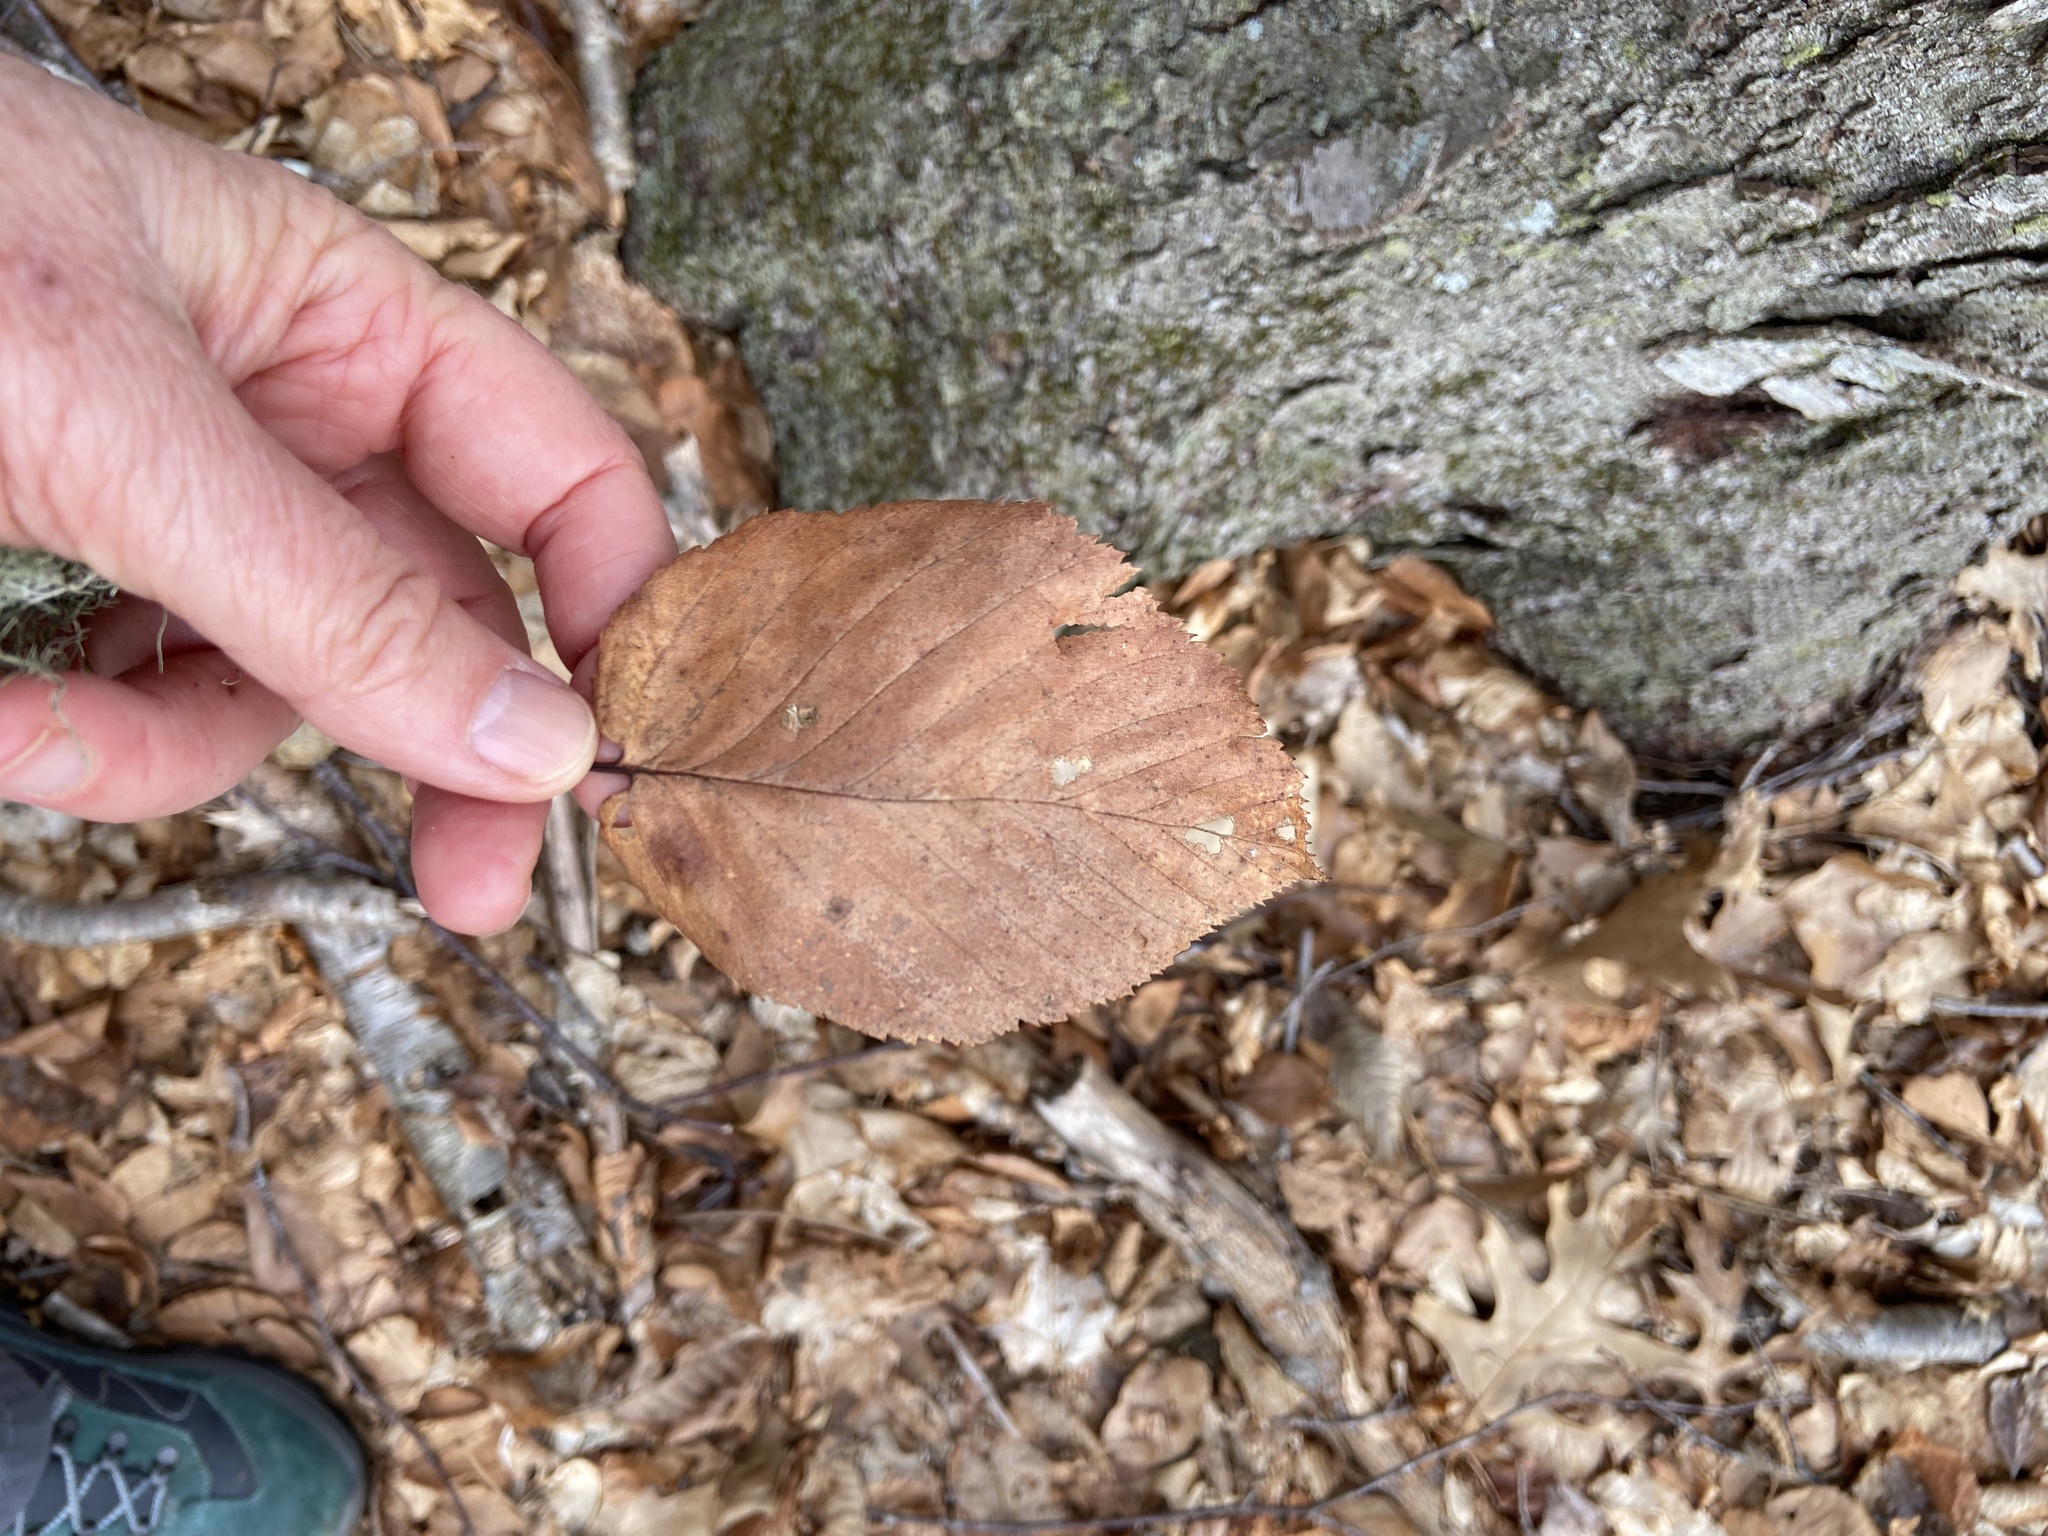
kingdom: Plantae
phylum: Tracheophyta
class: Magnoliopsida
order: Fagales
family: Betulaceae
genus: Betula
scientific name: Betula lenta
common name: Black birch
